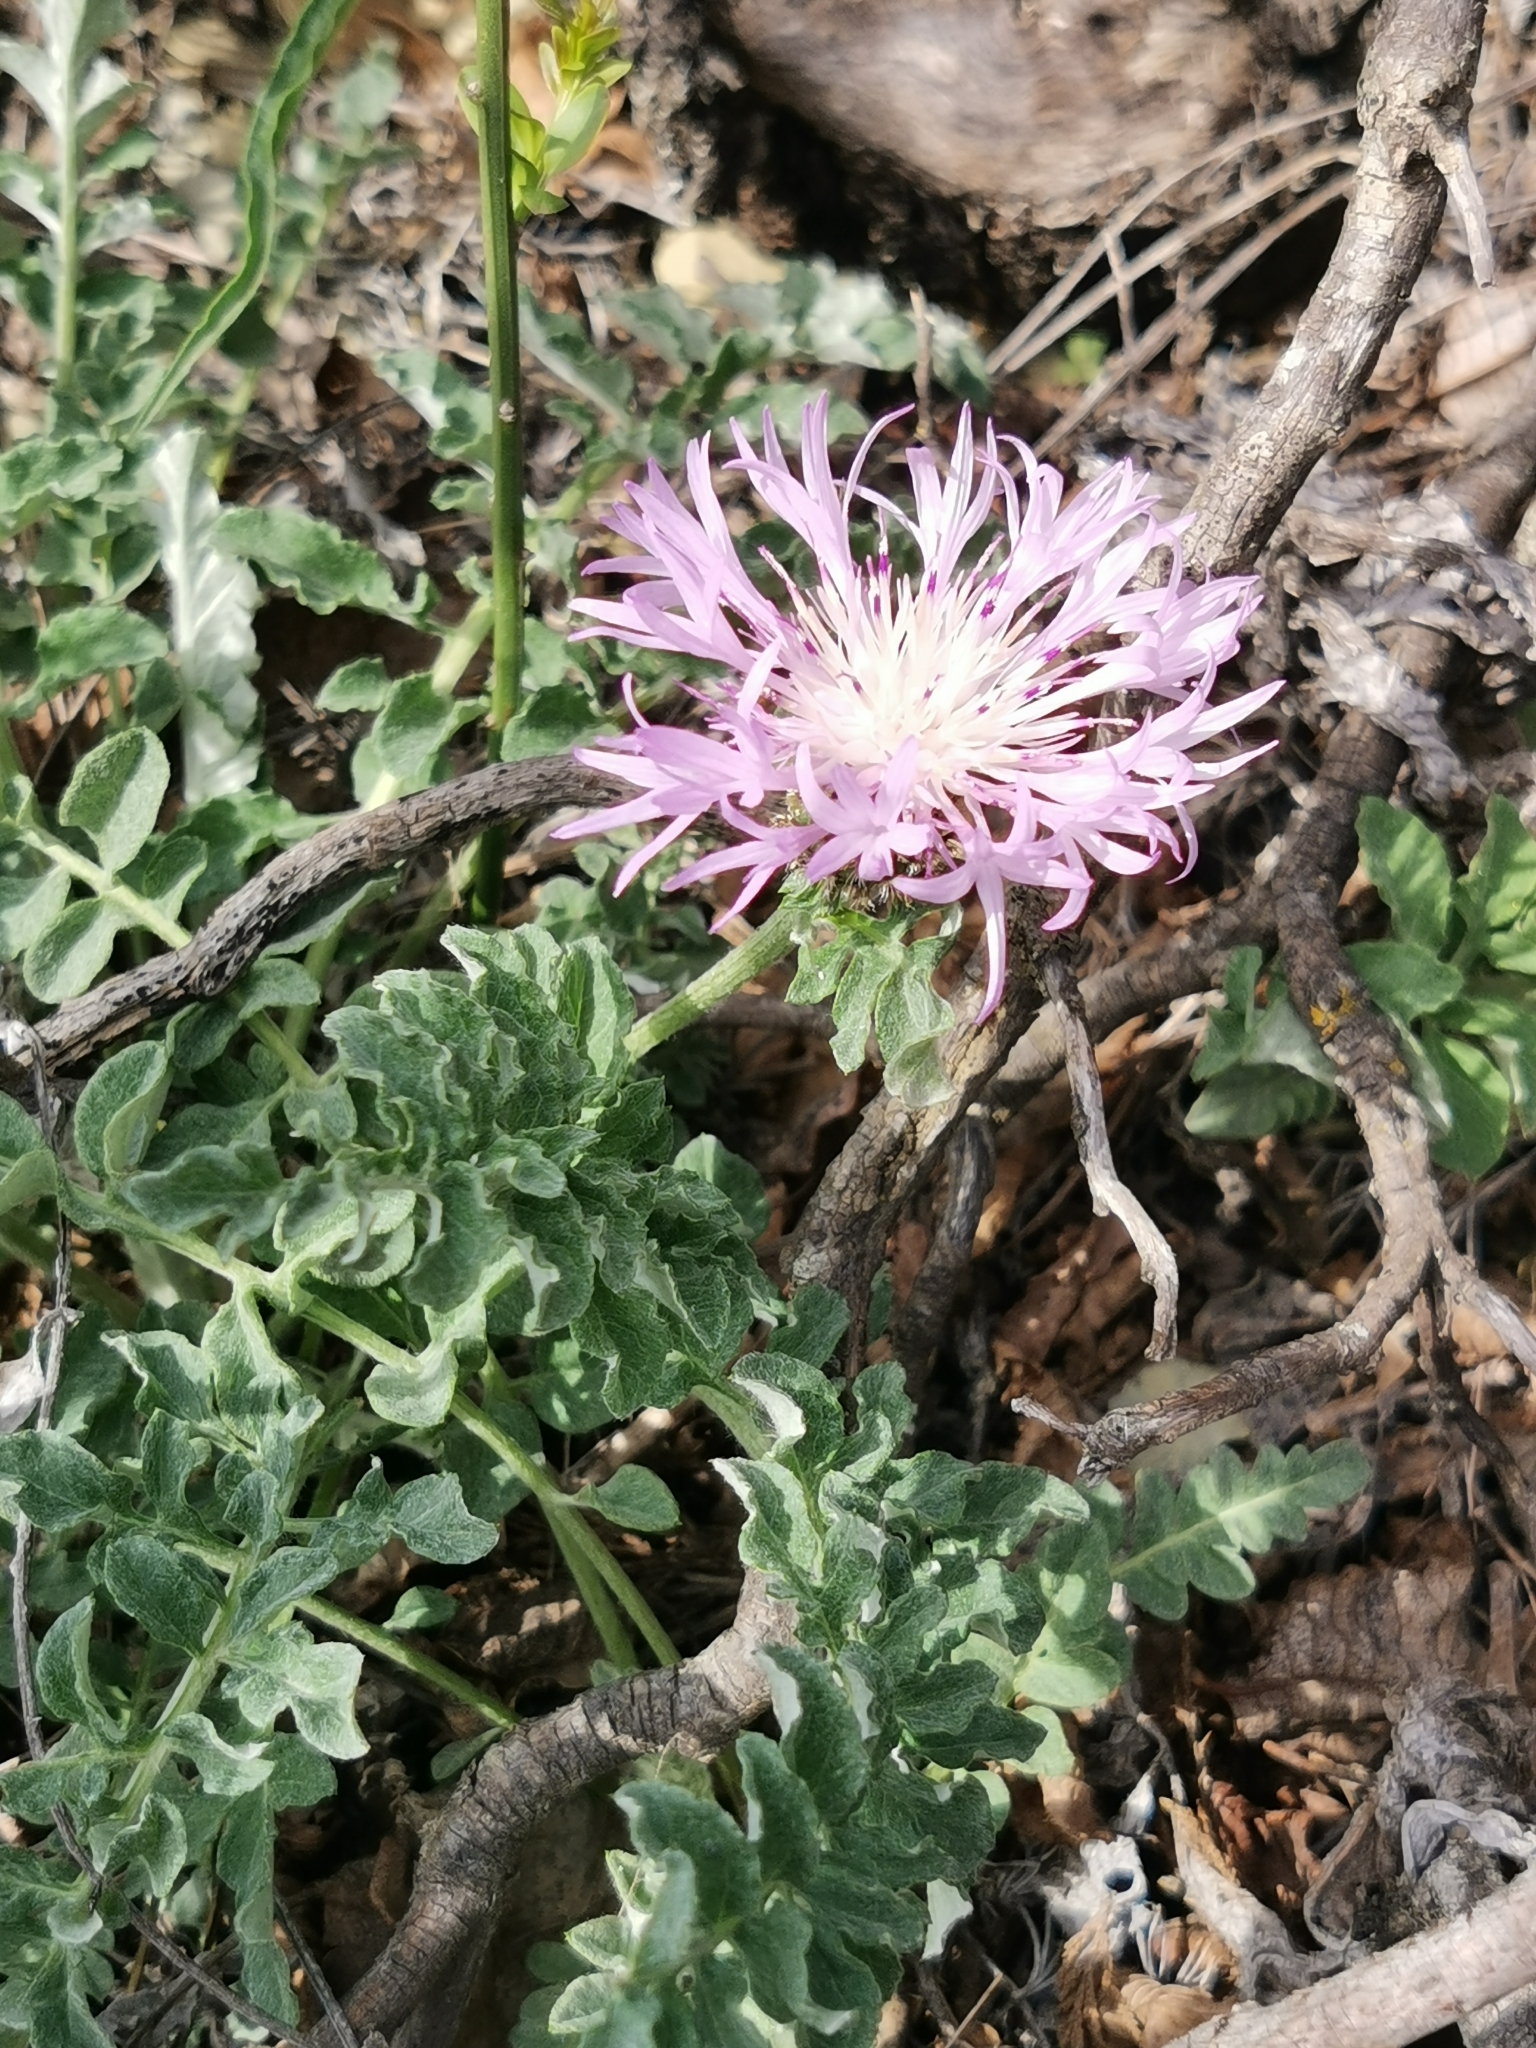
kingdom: Plantae
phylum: Tracheophyta
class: Magnoliopsida
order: Asterales
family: Asteraceae
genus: Psephellus
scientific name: Psephellus declinatus
